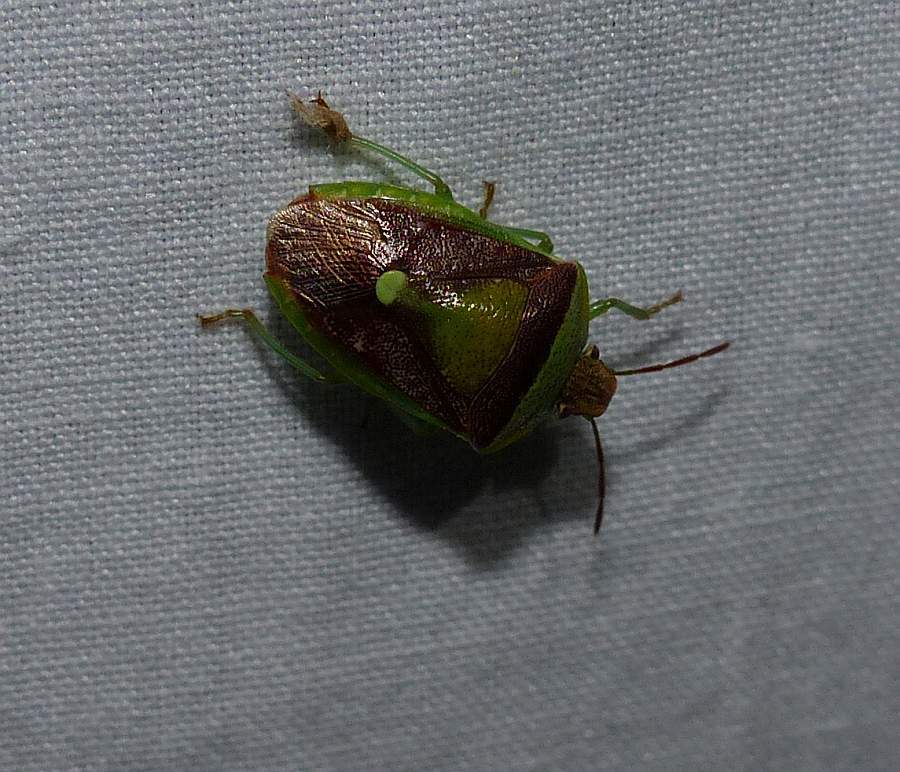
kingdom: Animalia
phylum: Arthropoda
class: Insecta
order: Hemiptera
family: Pentatomidae
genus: Banasa
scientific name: Banasa dimidiata
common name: Green burgundy stink bug
